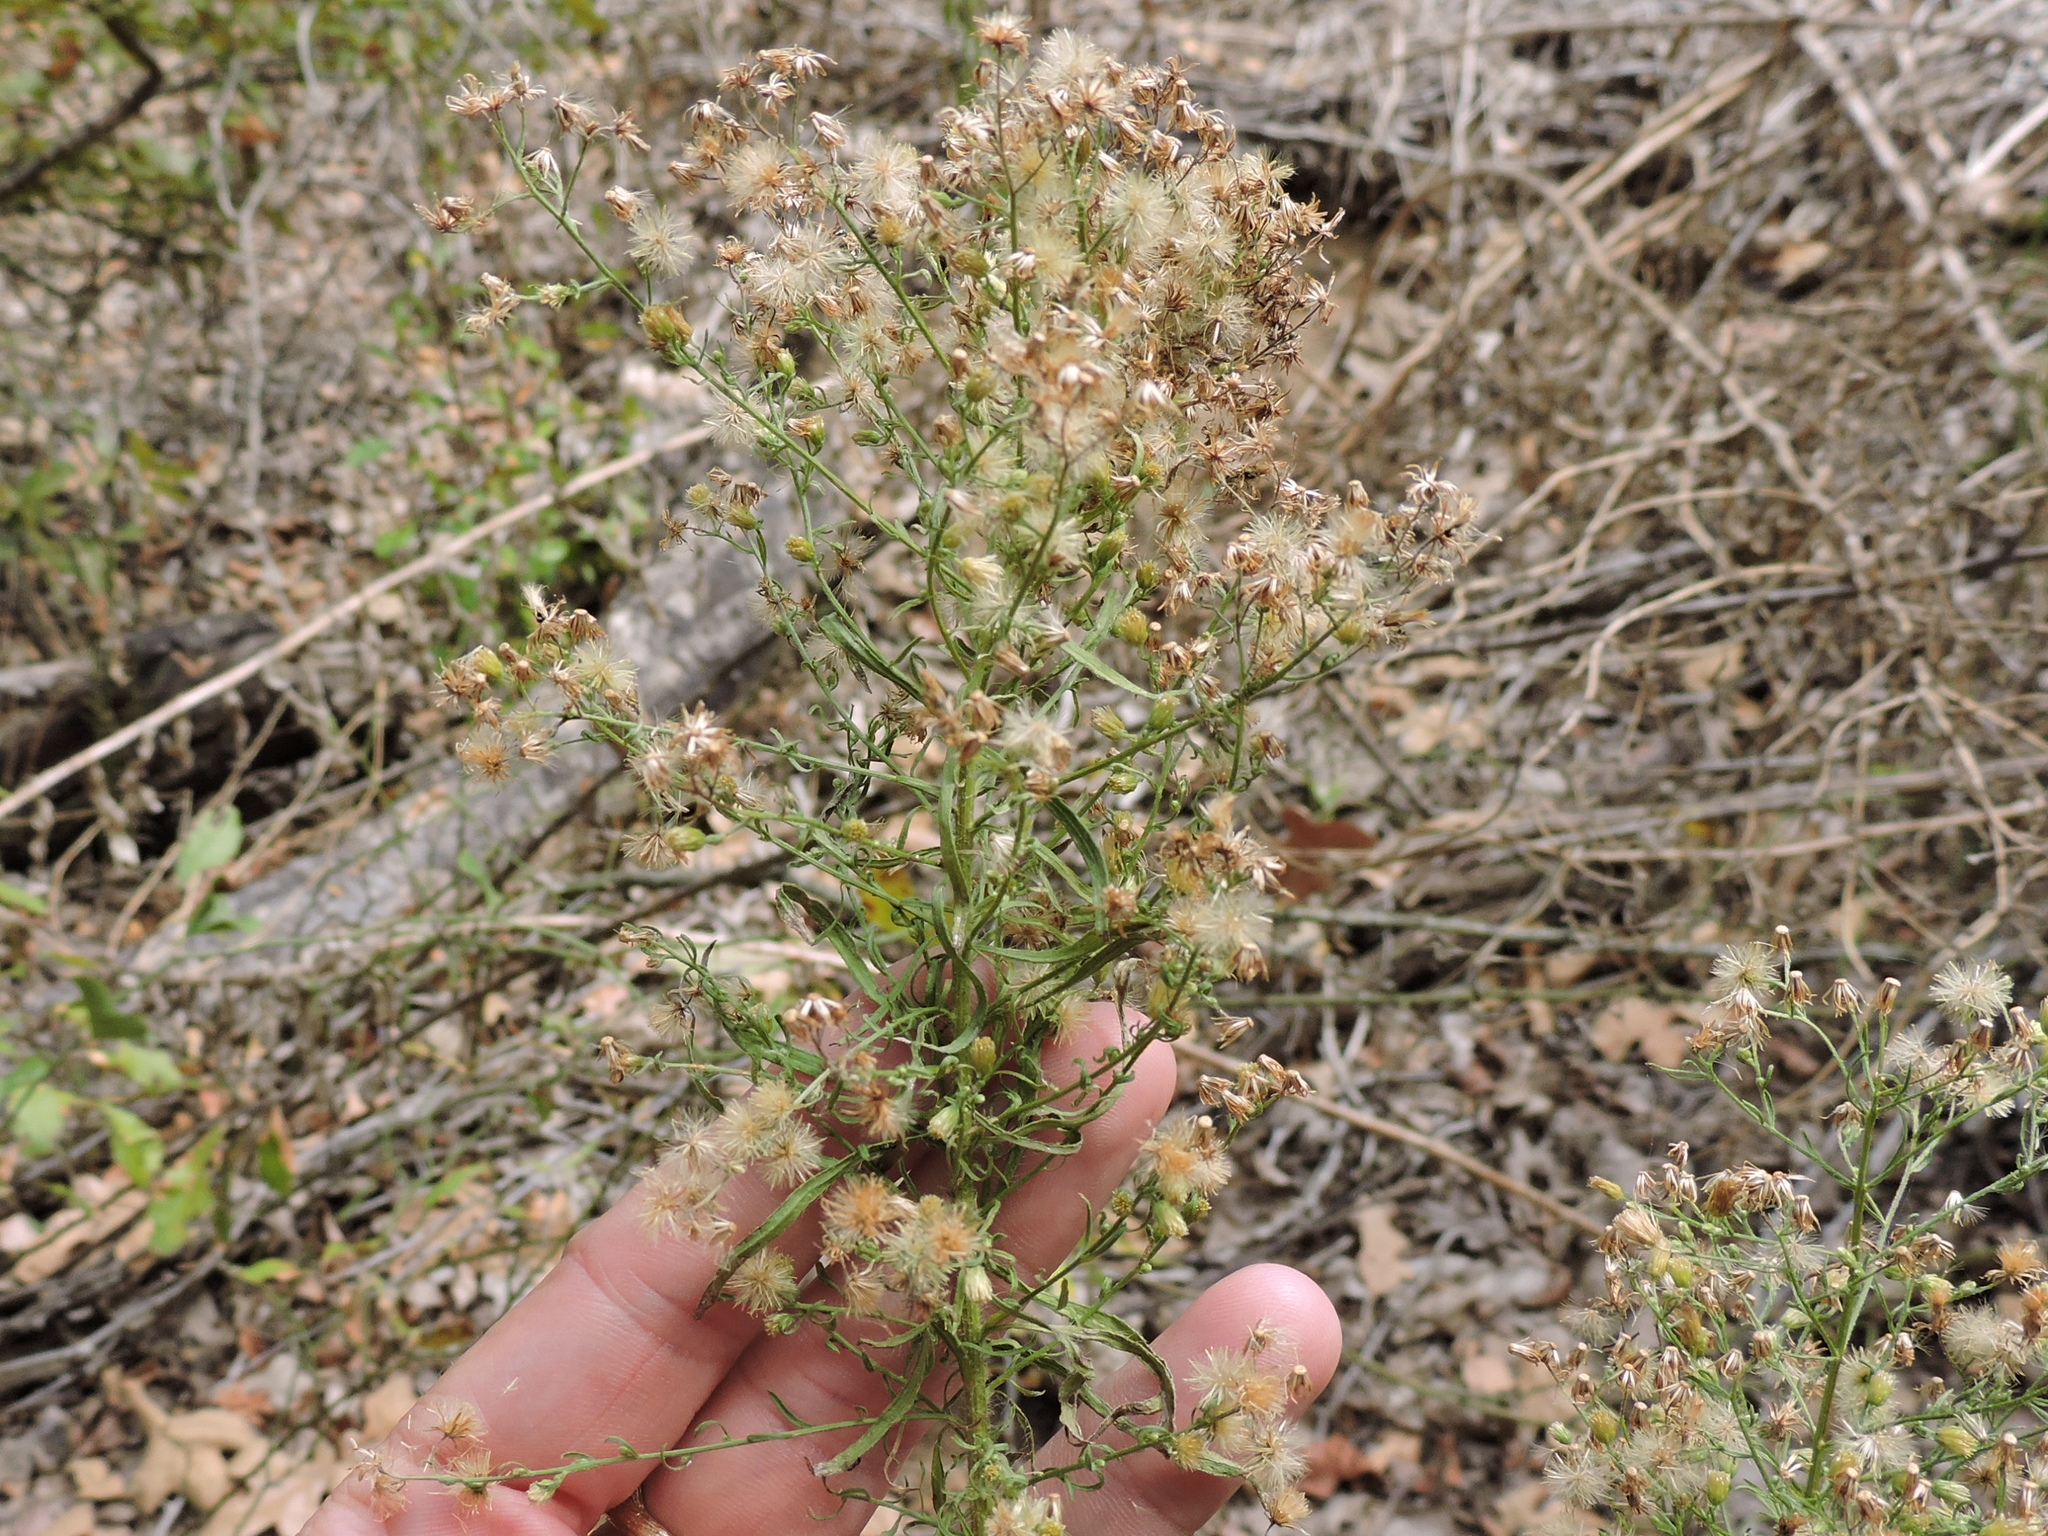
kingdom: Plantae
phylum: Tracheophyta
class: Magnoliopsida
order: Asterales
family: Asteraceae
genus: Erigeron
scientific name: Erigeron canadensis
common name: Canadian fleabane
